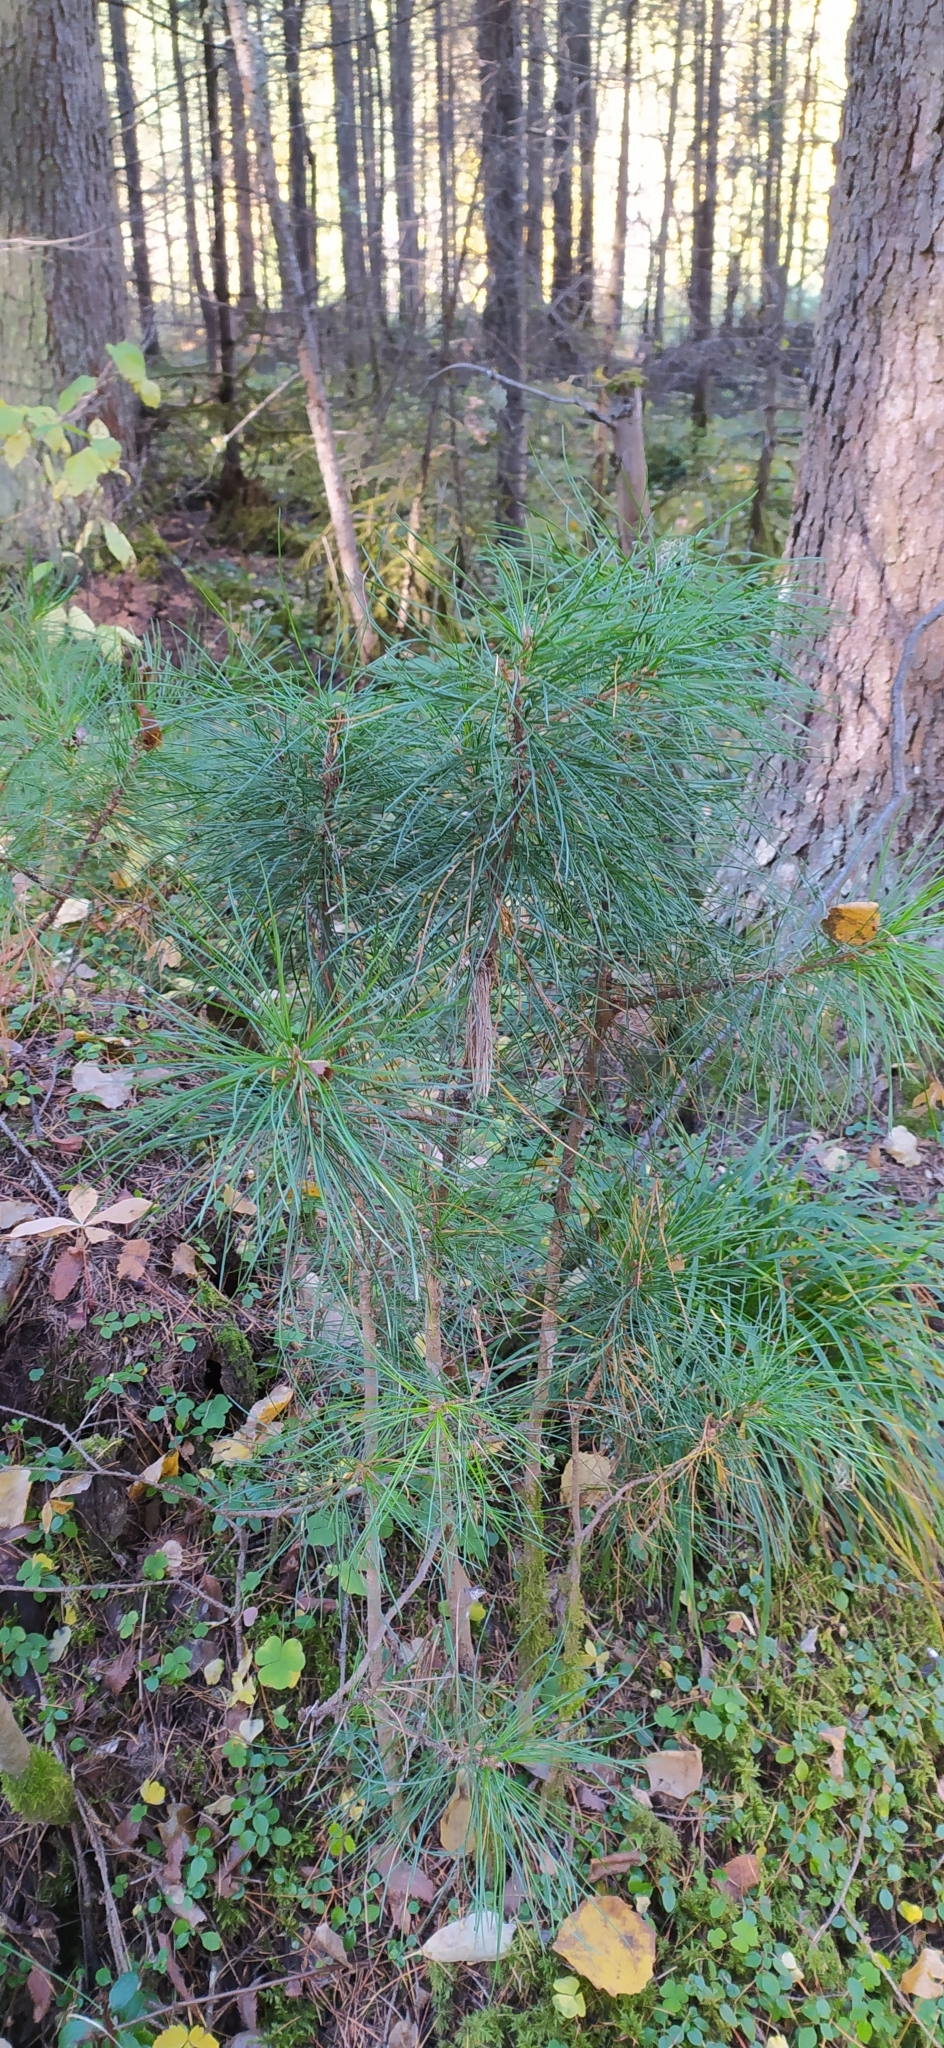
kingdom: Plantae
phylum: Tracheophyta
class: Pinopsida
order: Pinales
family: Pinaceae
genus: Pinus
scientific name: Pinus sibirica
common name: Siberian pine
